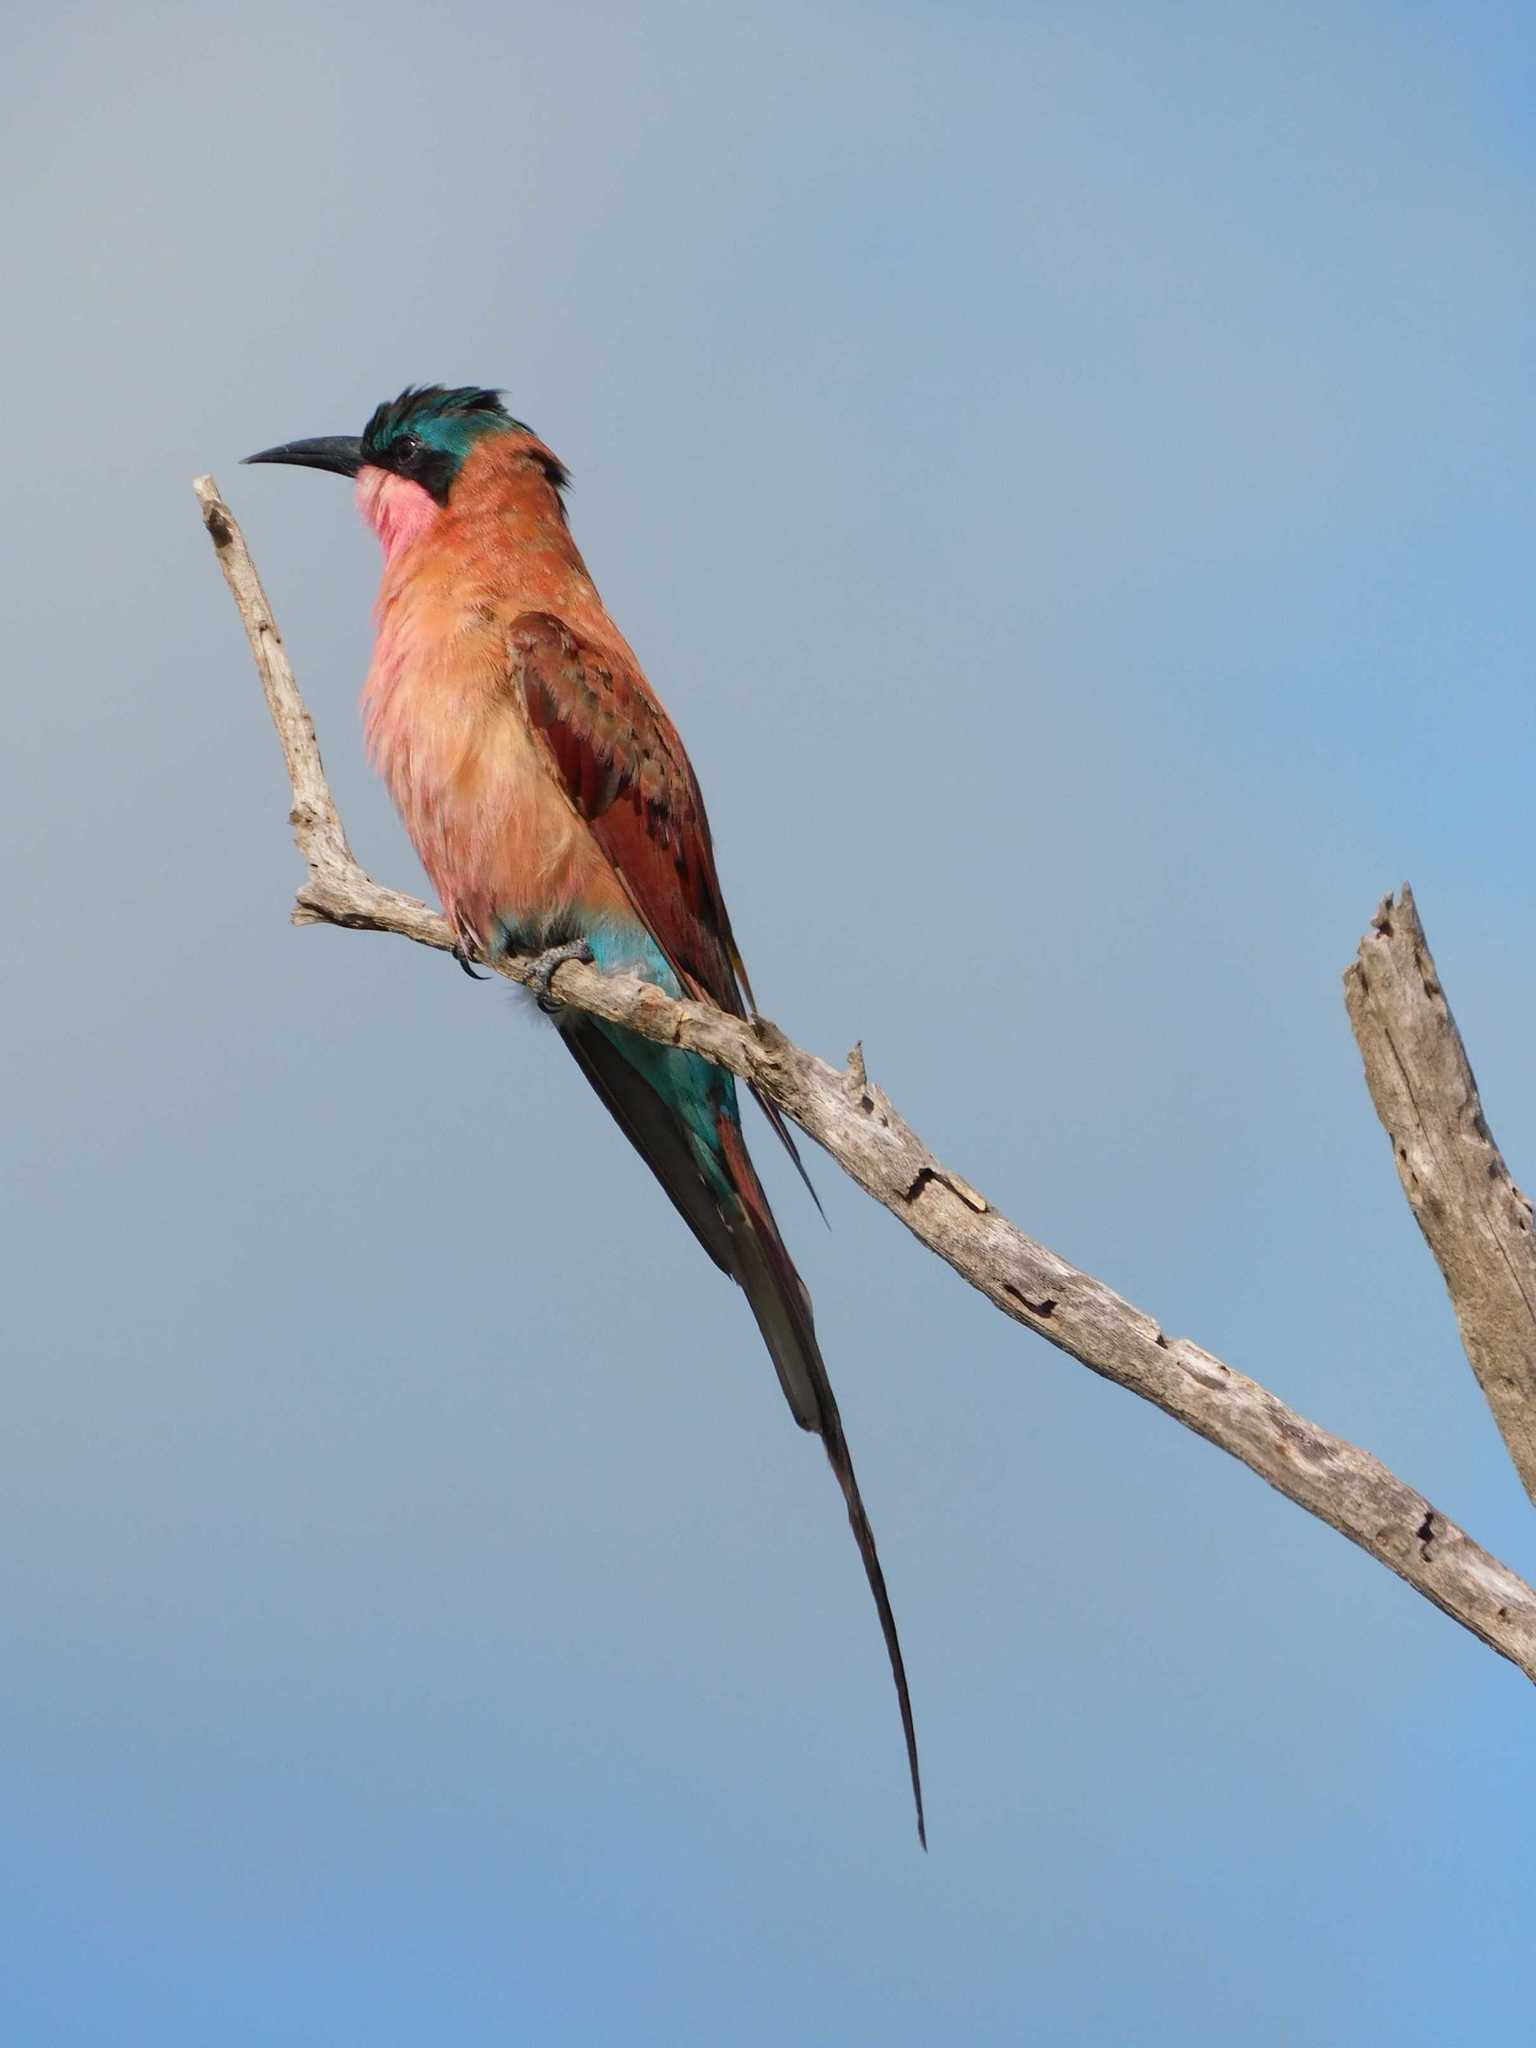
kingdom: Animalia
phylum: Chordata
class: Aves
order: Coraciiformes
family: Meropidae
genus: Merops
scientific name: Merops nubicoides
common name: Southern carmine bee-eater
